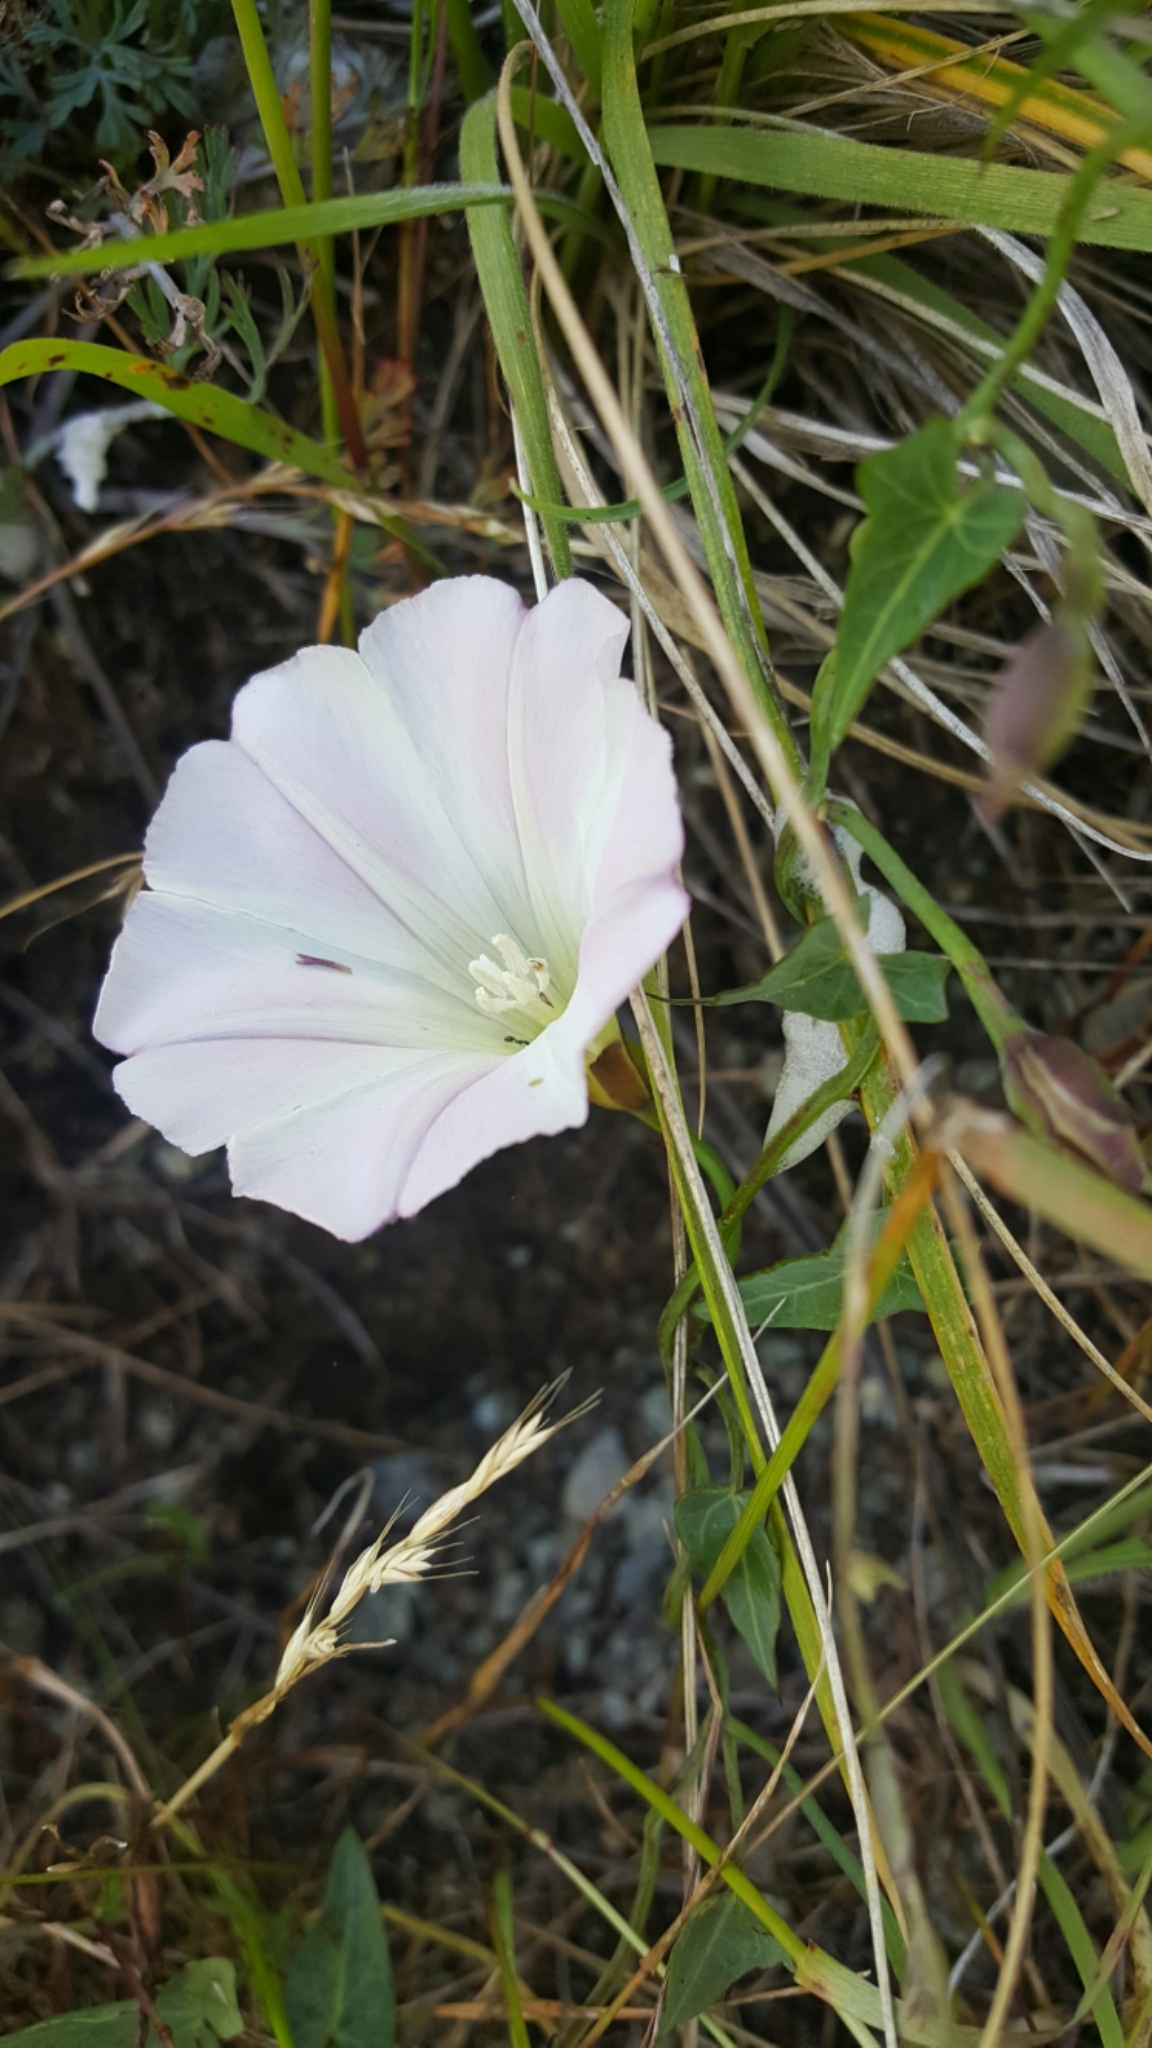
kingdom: Plantae
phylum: Tracheophyta
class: Magnoliopsida
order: Solanales
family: Convolvulaceae
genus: Calystegia
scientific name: Calystegia purpurata
